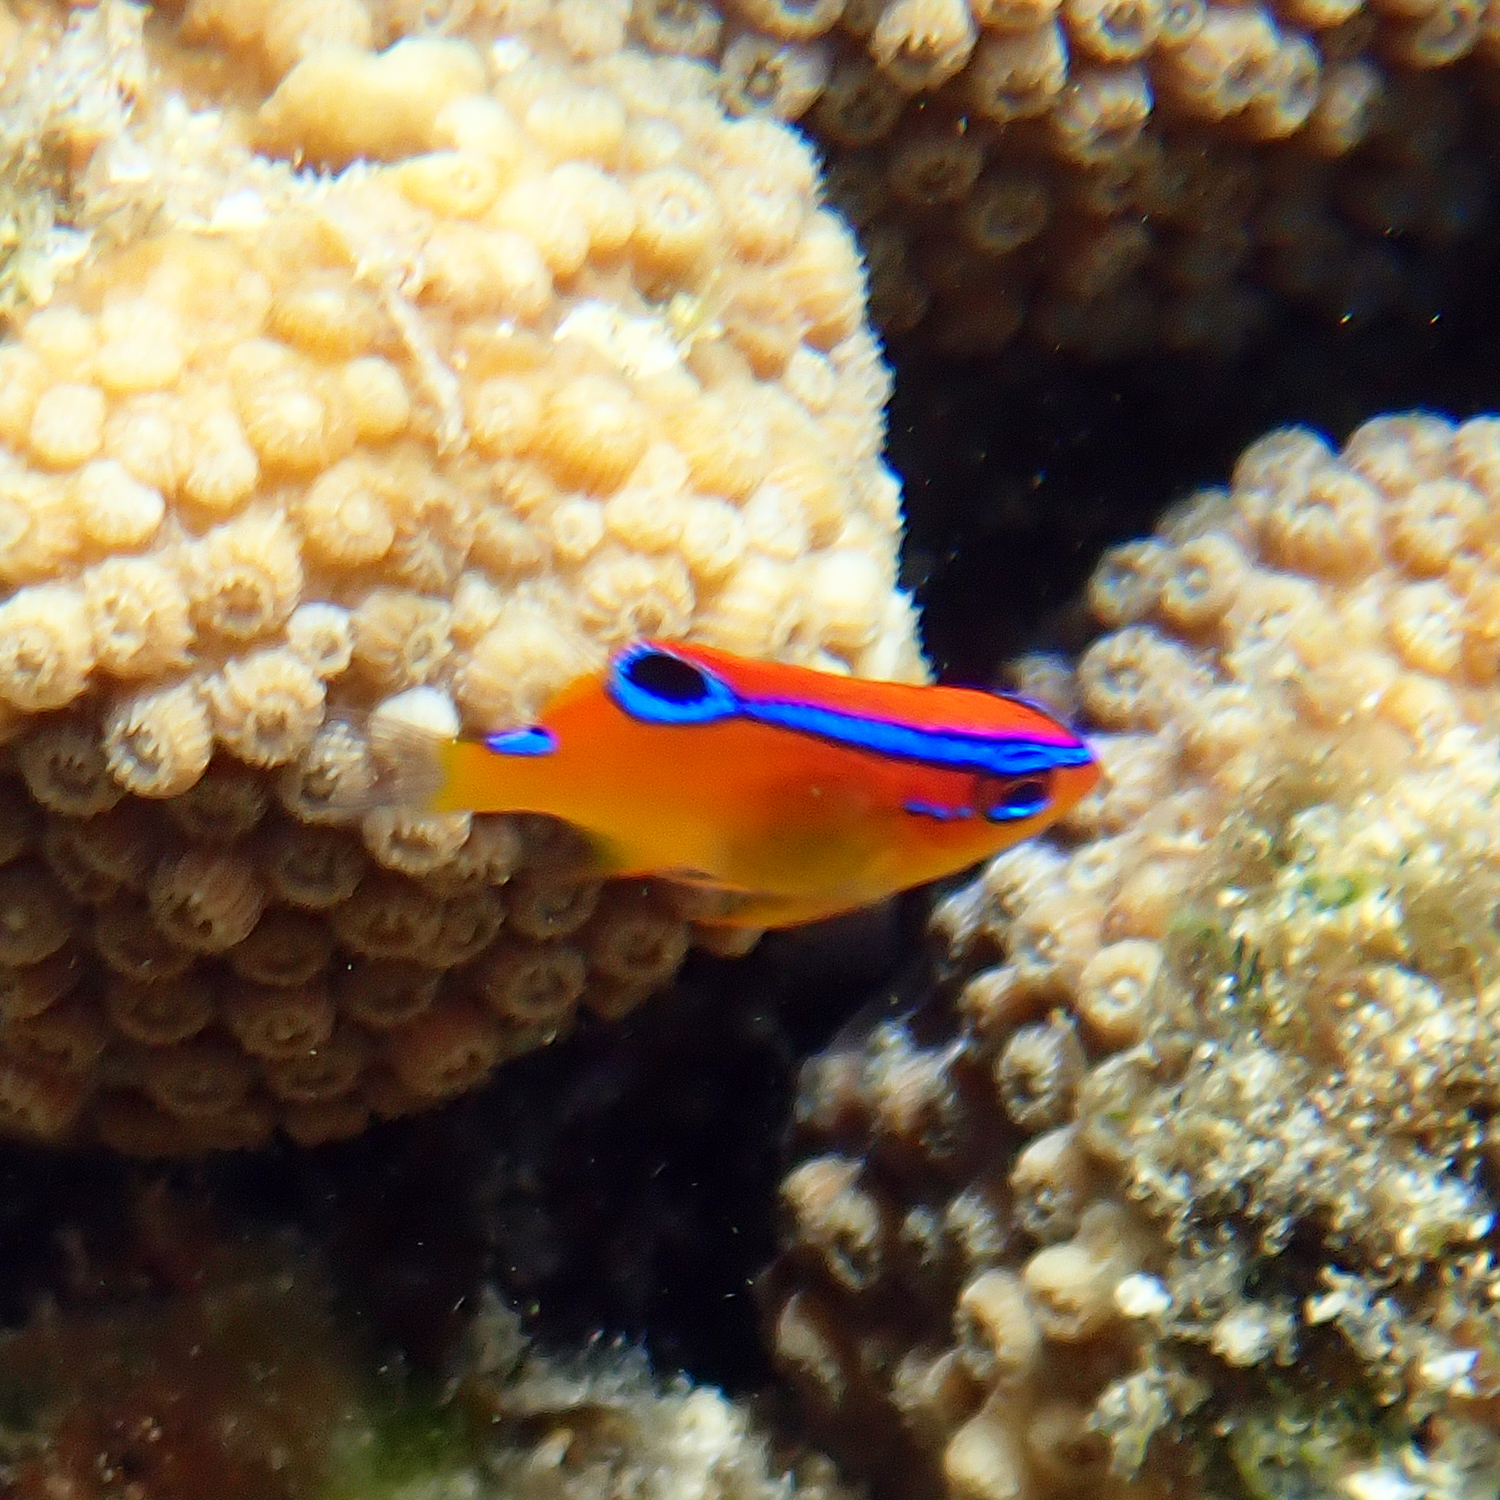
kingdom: Animalia
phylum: Chordata
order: Perciformes
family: Pomacentridae
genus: Neoglyphidodon
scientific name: Neoglyphidodon polyacanthus
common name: Multi-spined damsel
